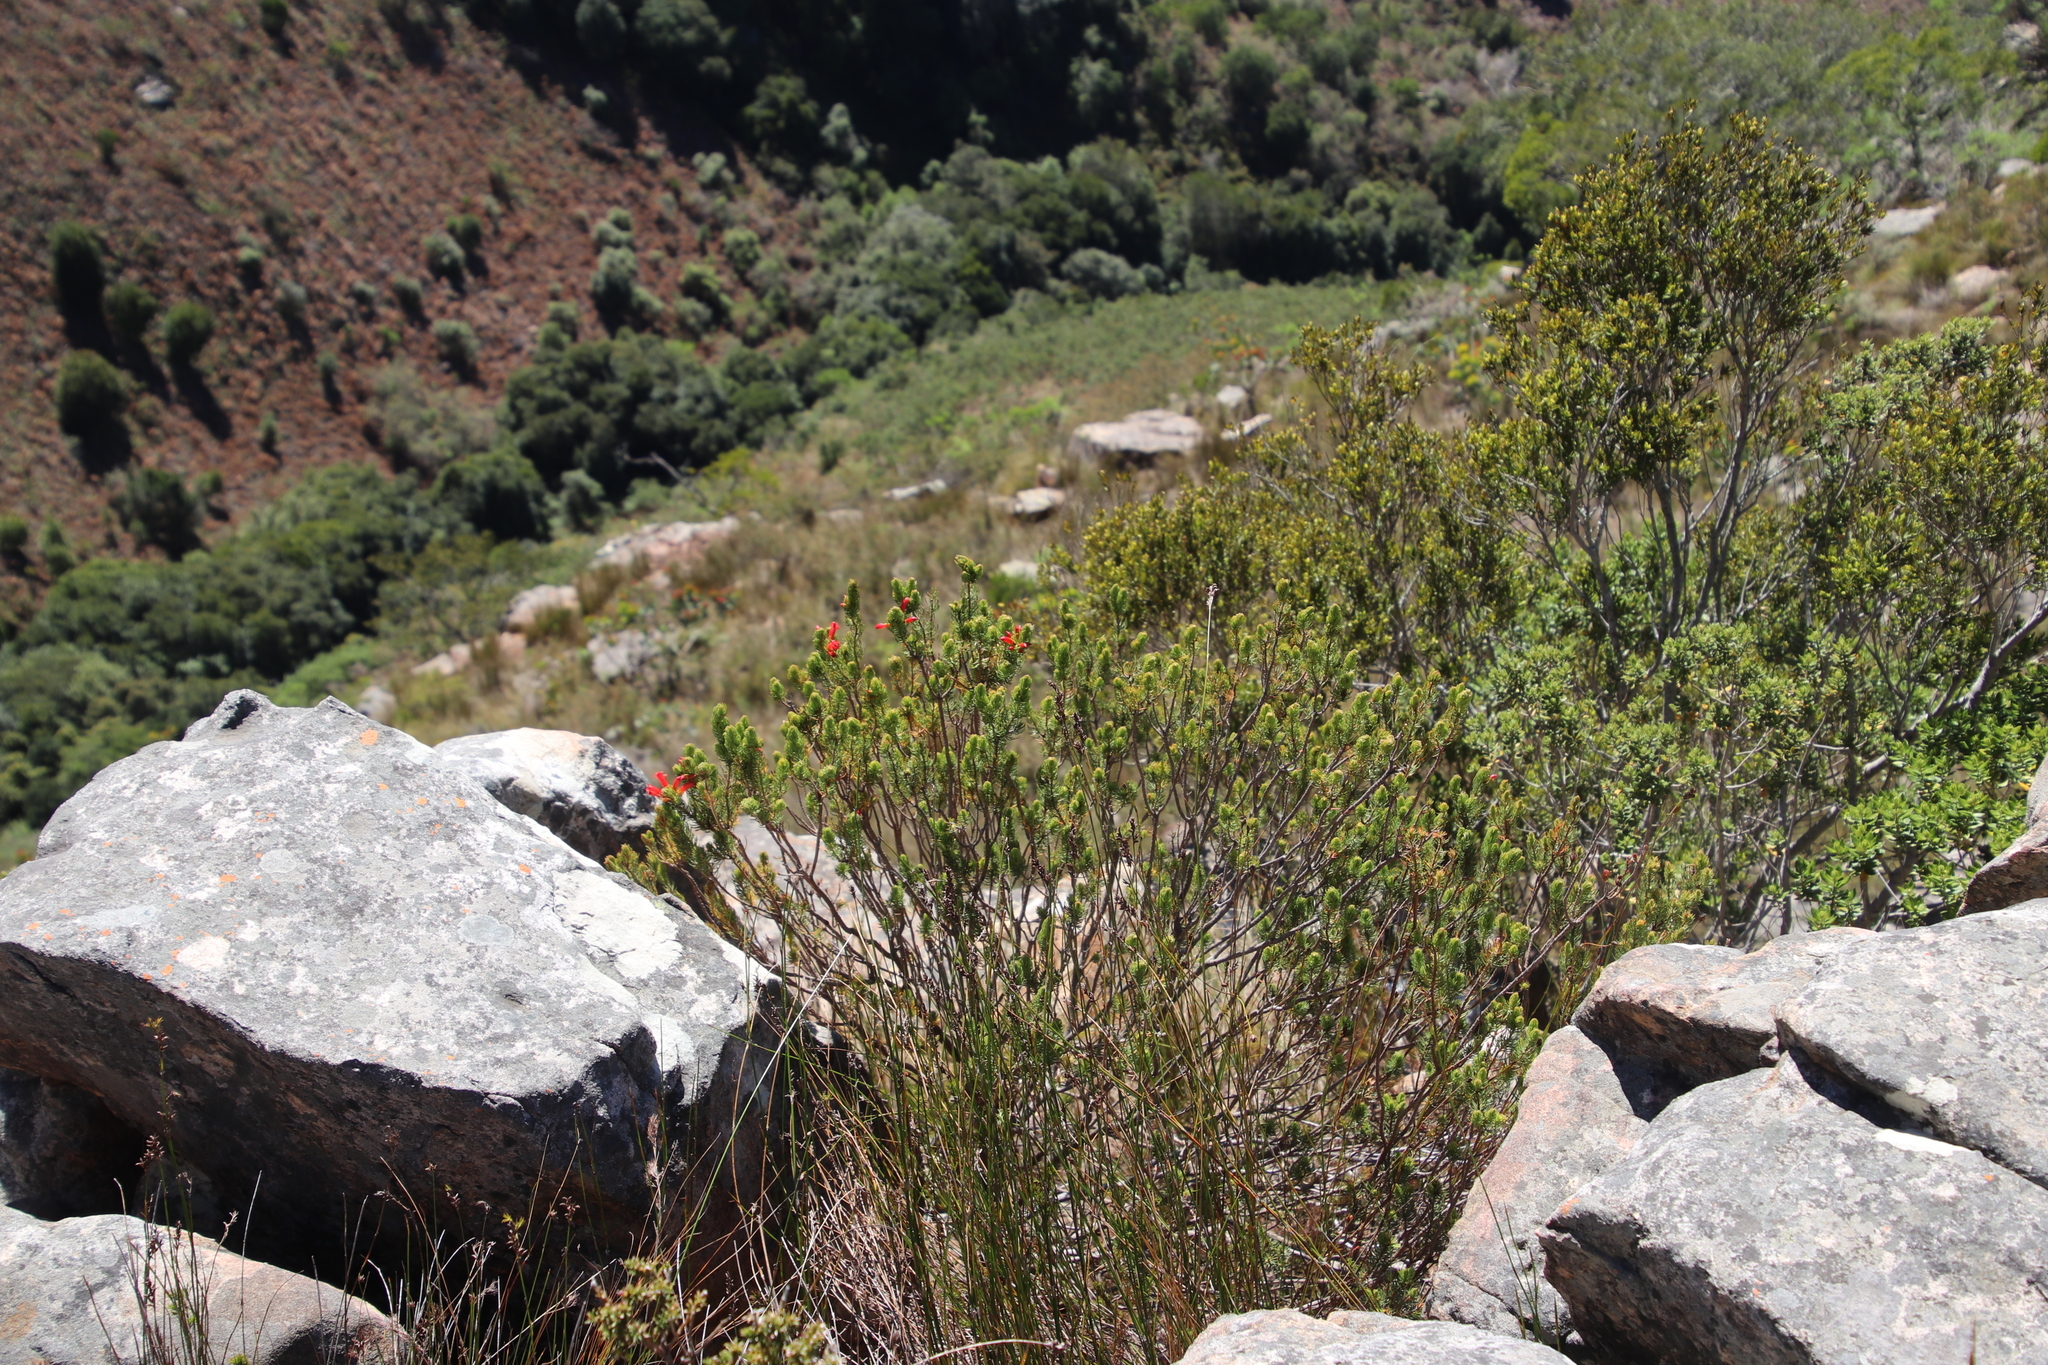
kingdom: Plantae
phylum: Tracheophyta
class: Magnoliopsida
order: Ericales
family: Ericaceae
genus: Erica
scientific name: Erica viscaria
